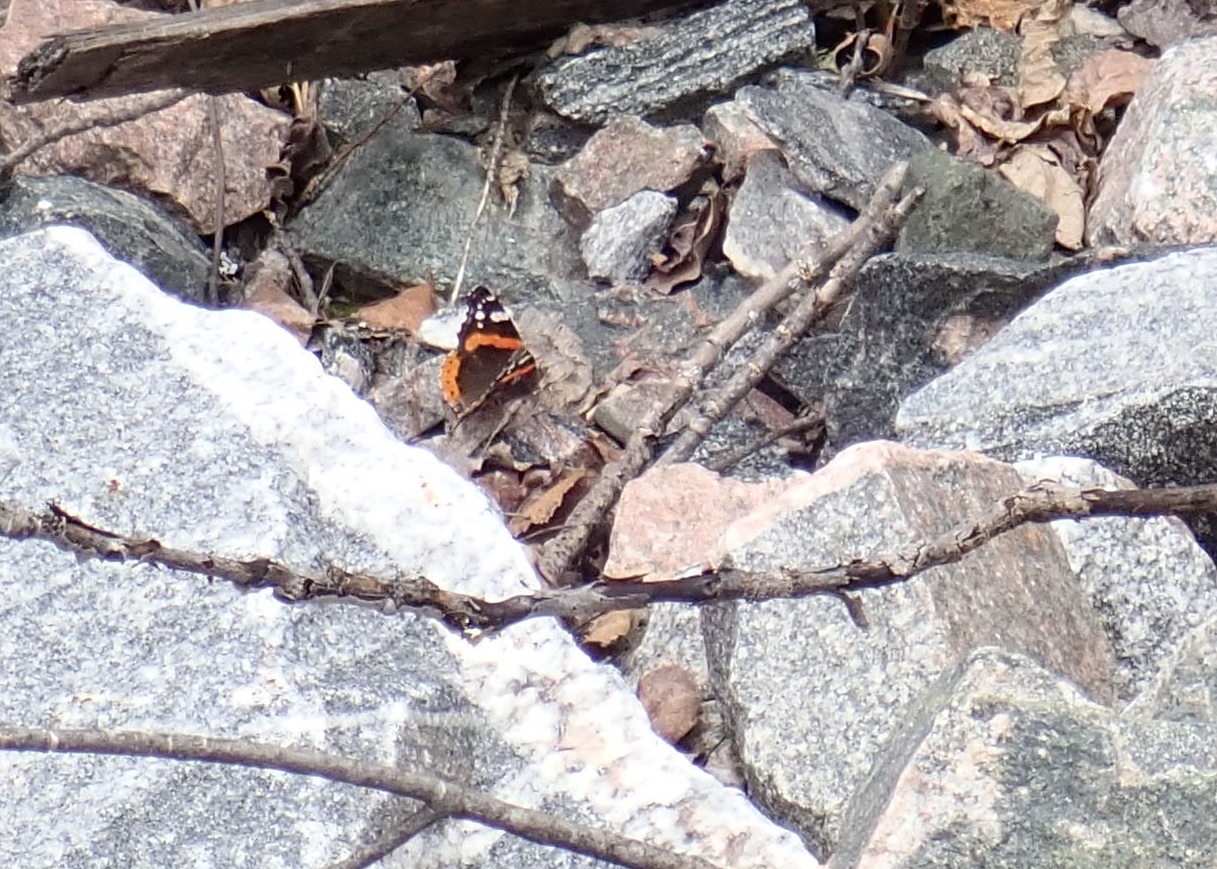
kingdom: Animalia
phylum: Arthropoda
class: Insecta
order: Lepidoptera
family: Nymphalidae
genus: Vanessa
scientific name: Vanessa atalanta
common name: Red admiral
